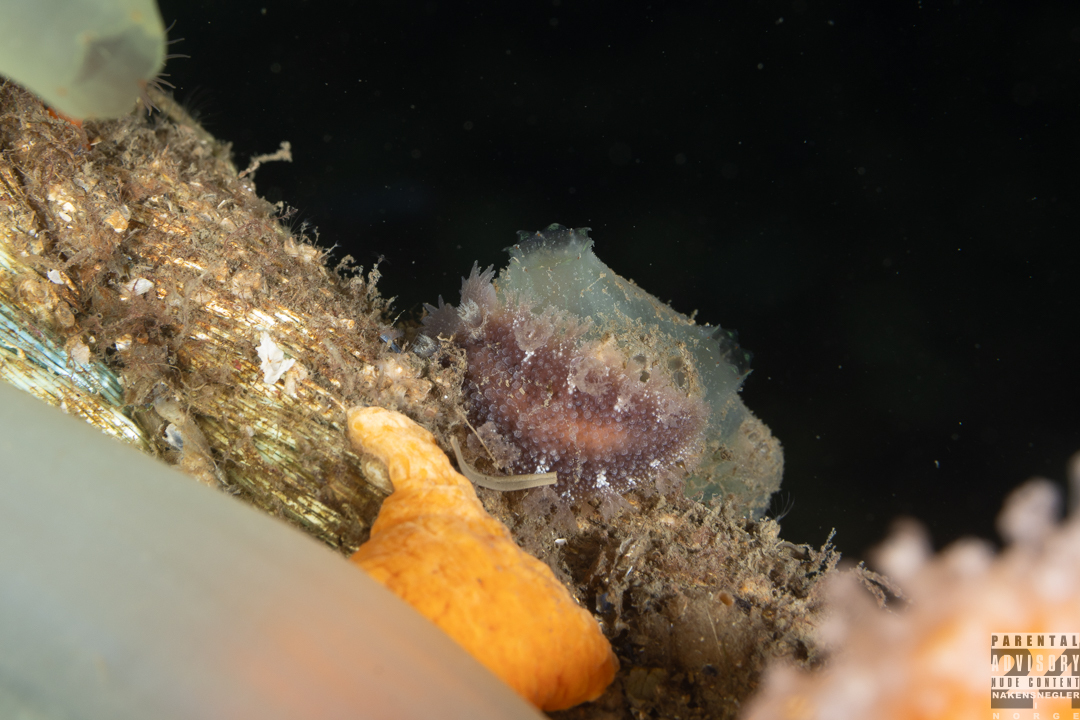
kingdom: Animalia
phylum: Mollusca
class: Gastropoda
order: Nudibranchia
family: Tritoniidae
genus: Tritonia
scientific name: Tritonia hombergii
